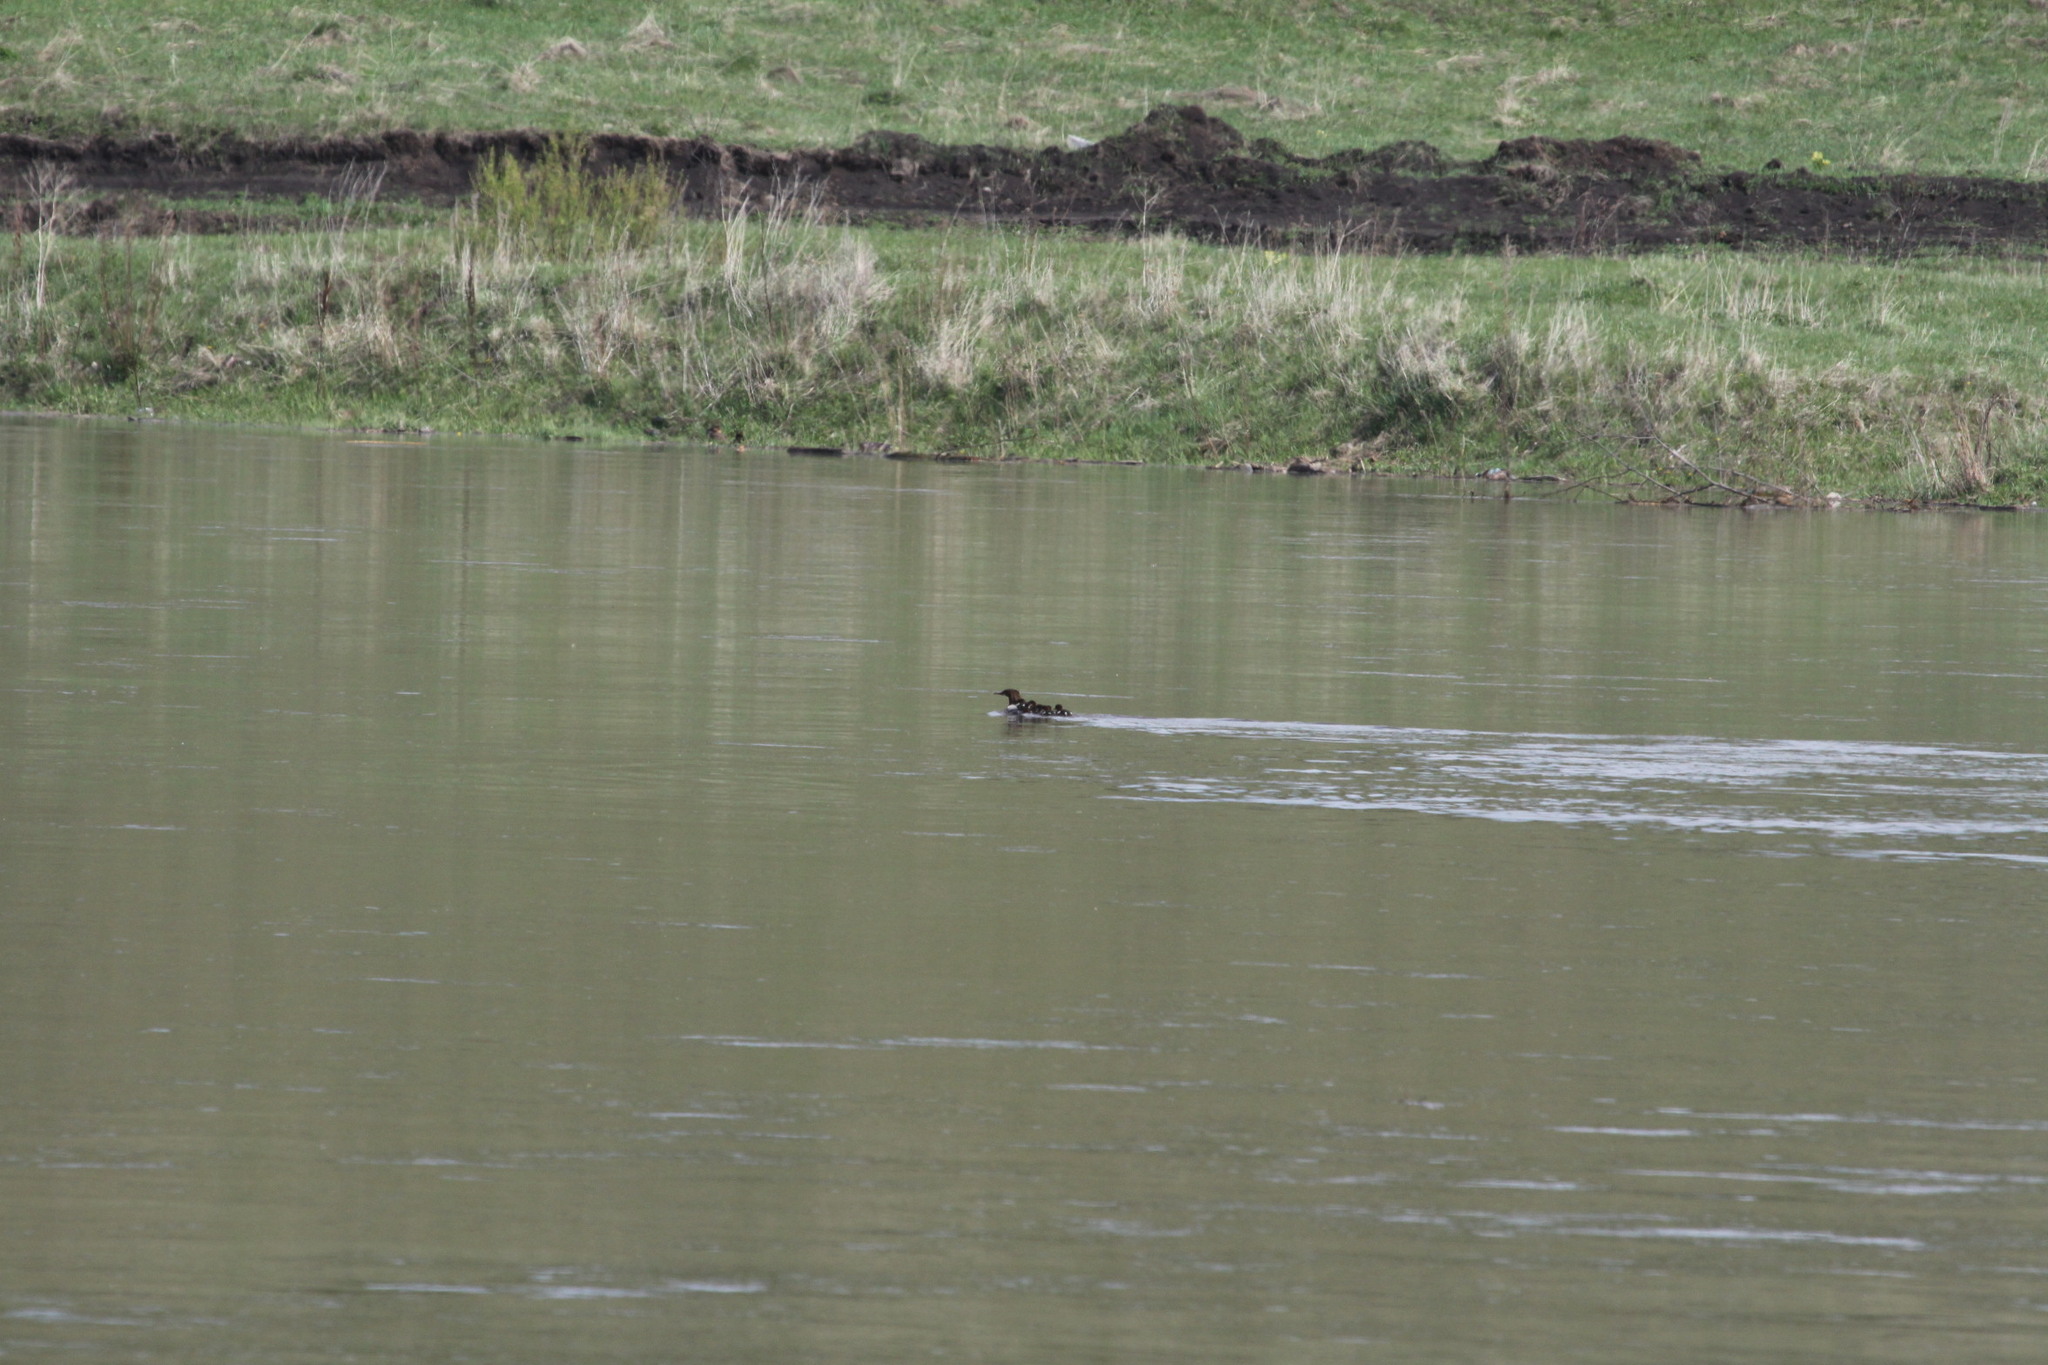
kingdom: Animalia
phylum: Chordata
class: Aves
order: Anseriformes
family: Anatidae
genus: Mergus
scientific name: Mergus merganser
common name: Common merganser
